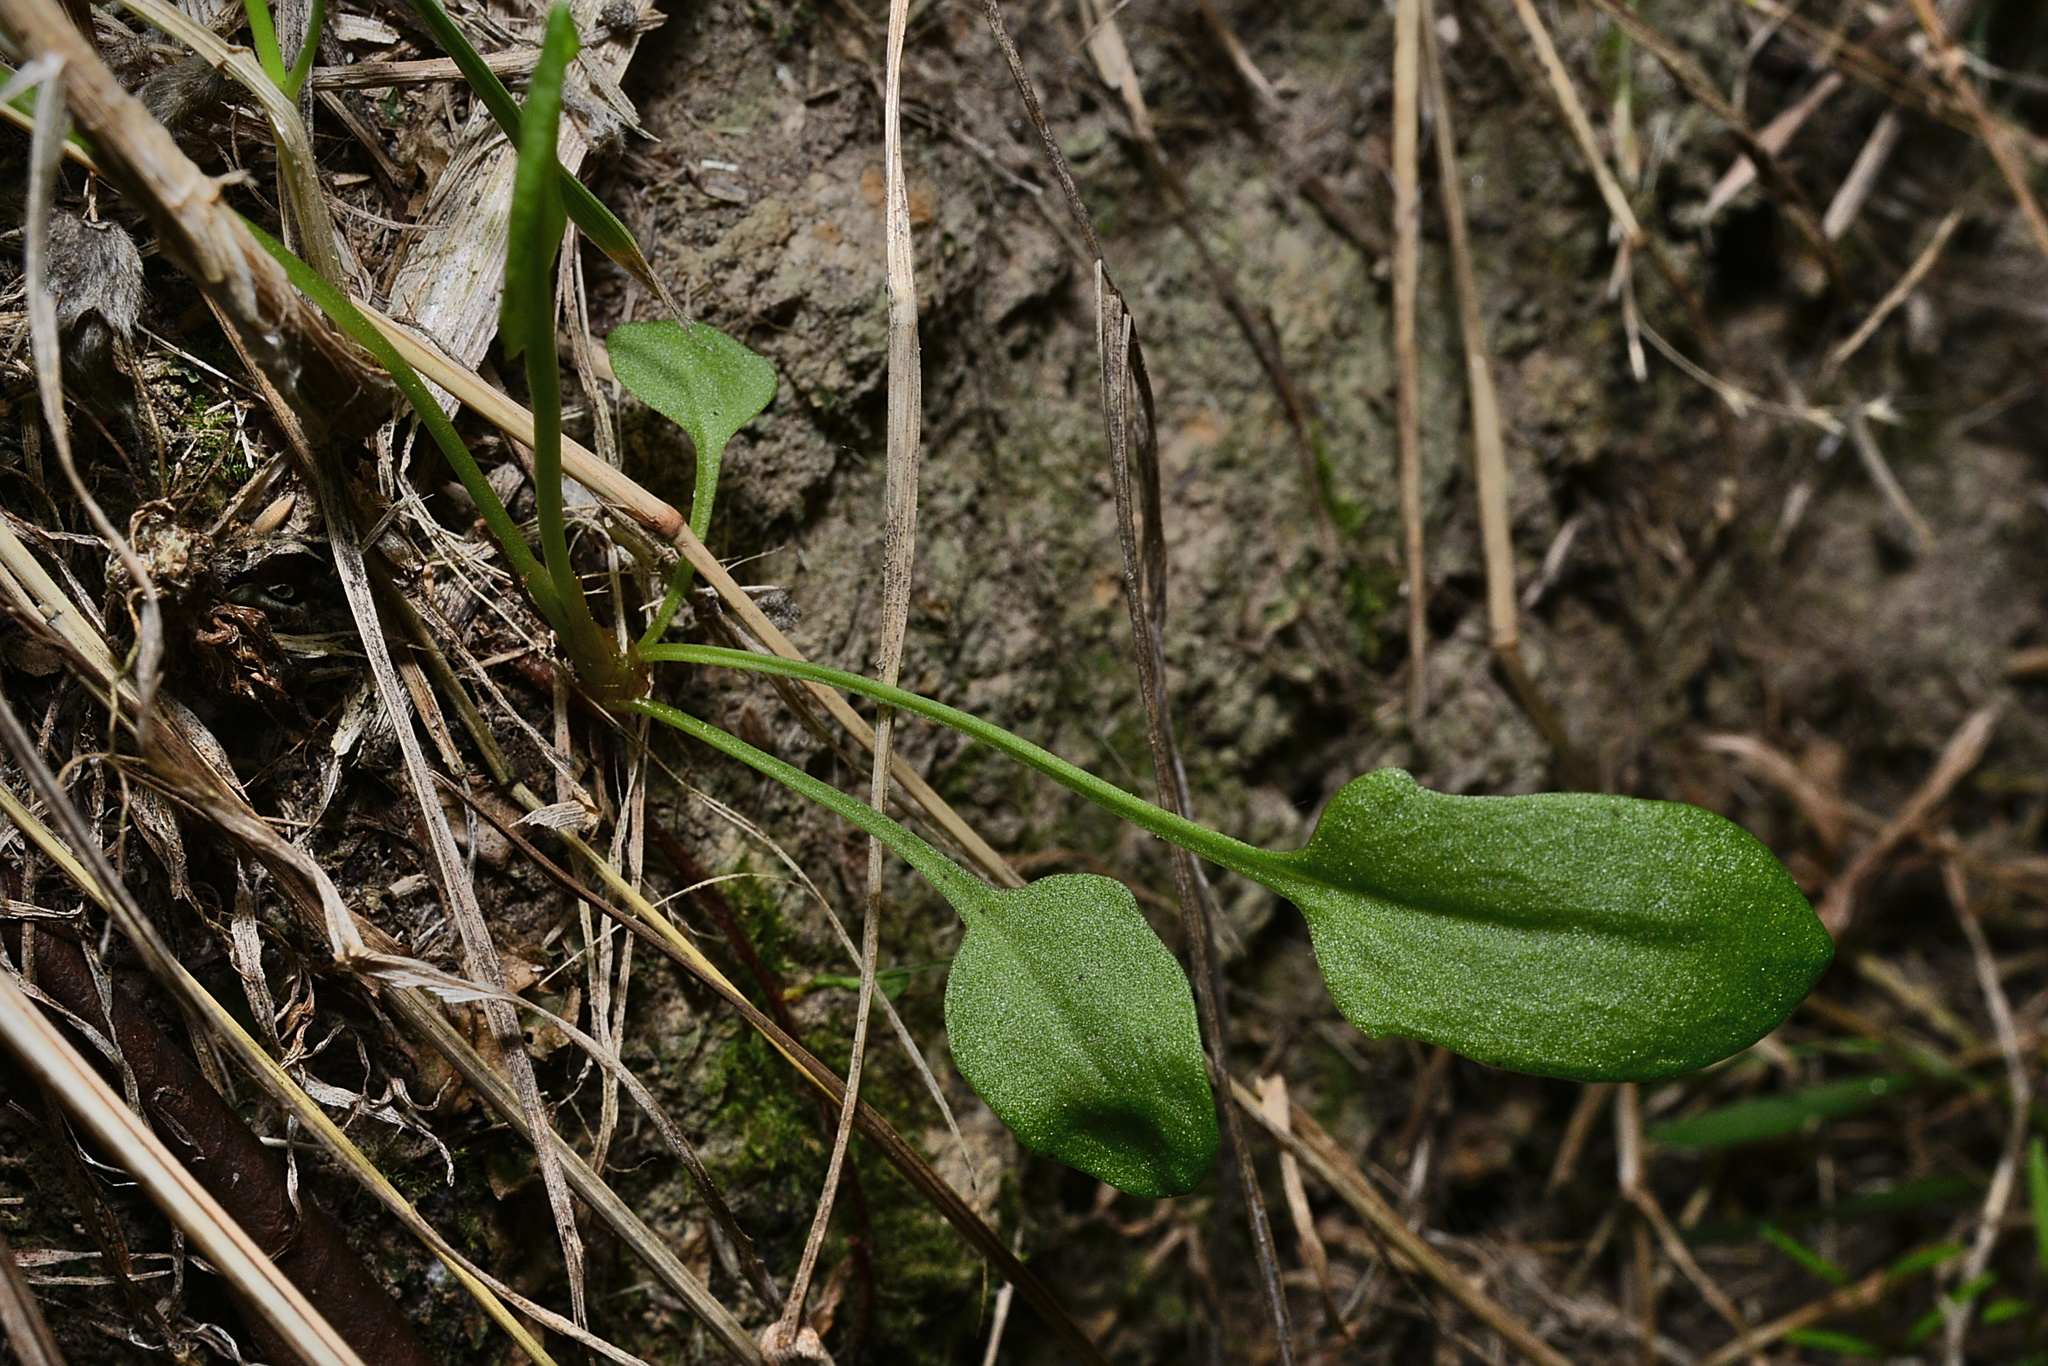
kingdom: Plantae
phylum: Tracheophyta
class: Magnoliopsida
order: Caryophyllales
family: Polygonaceae
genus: Rumex
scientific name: Rumex acetosella
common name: Common sheep sorrel
